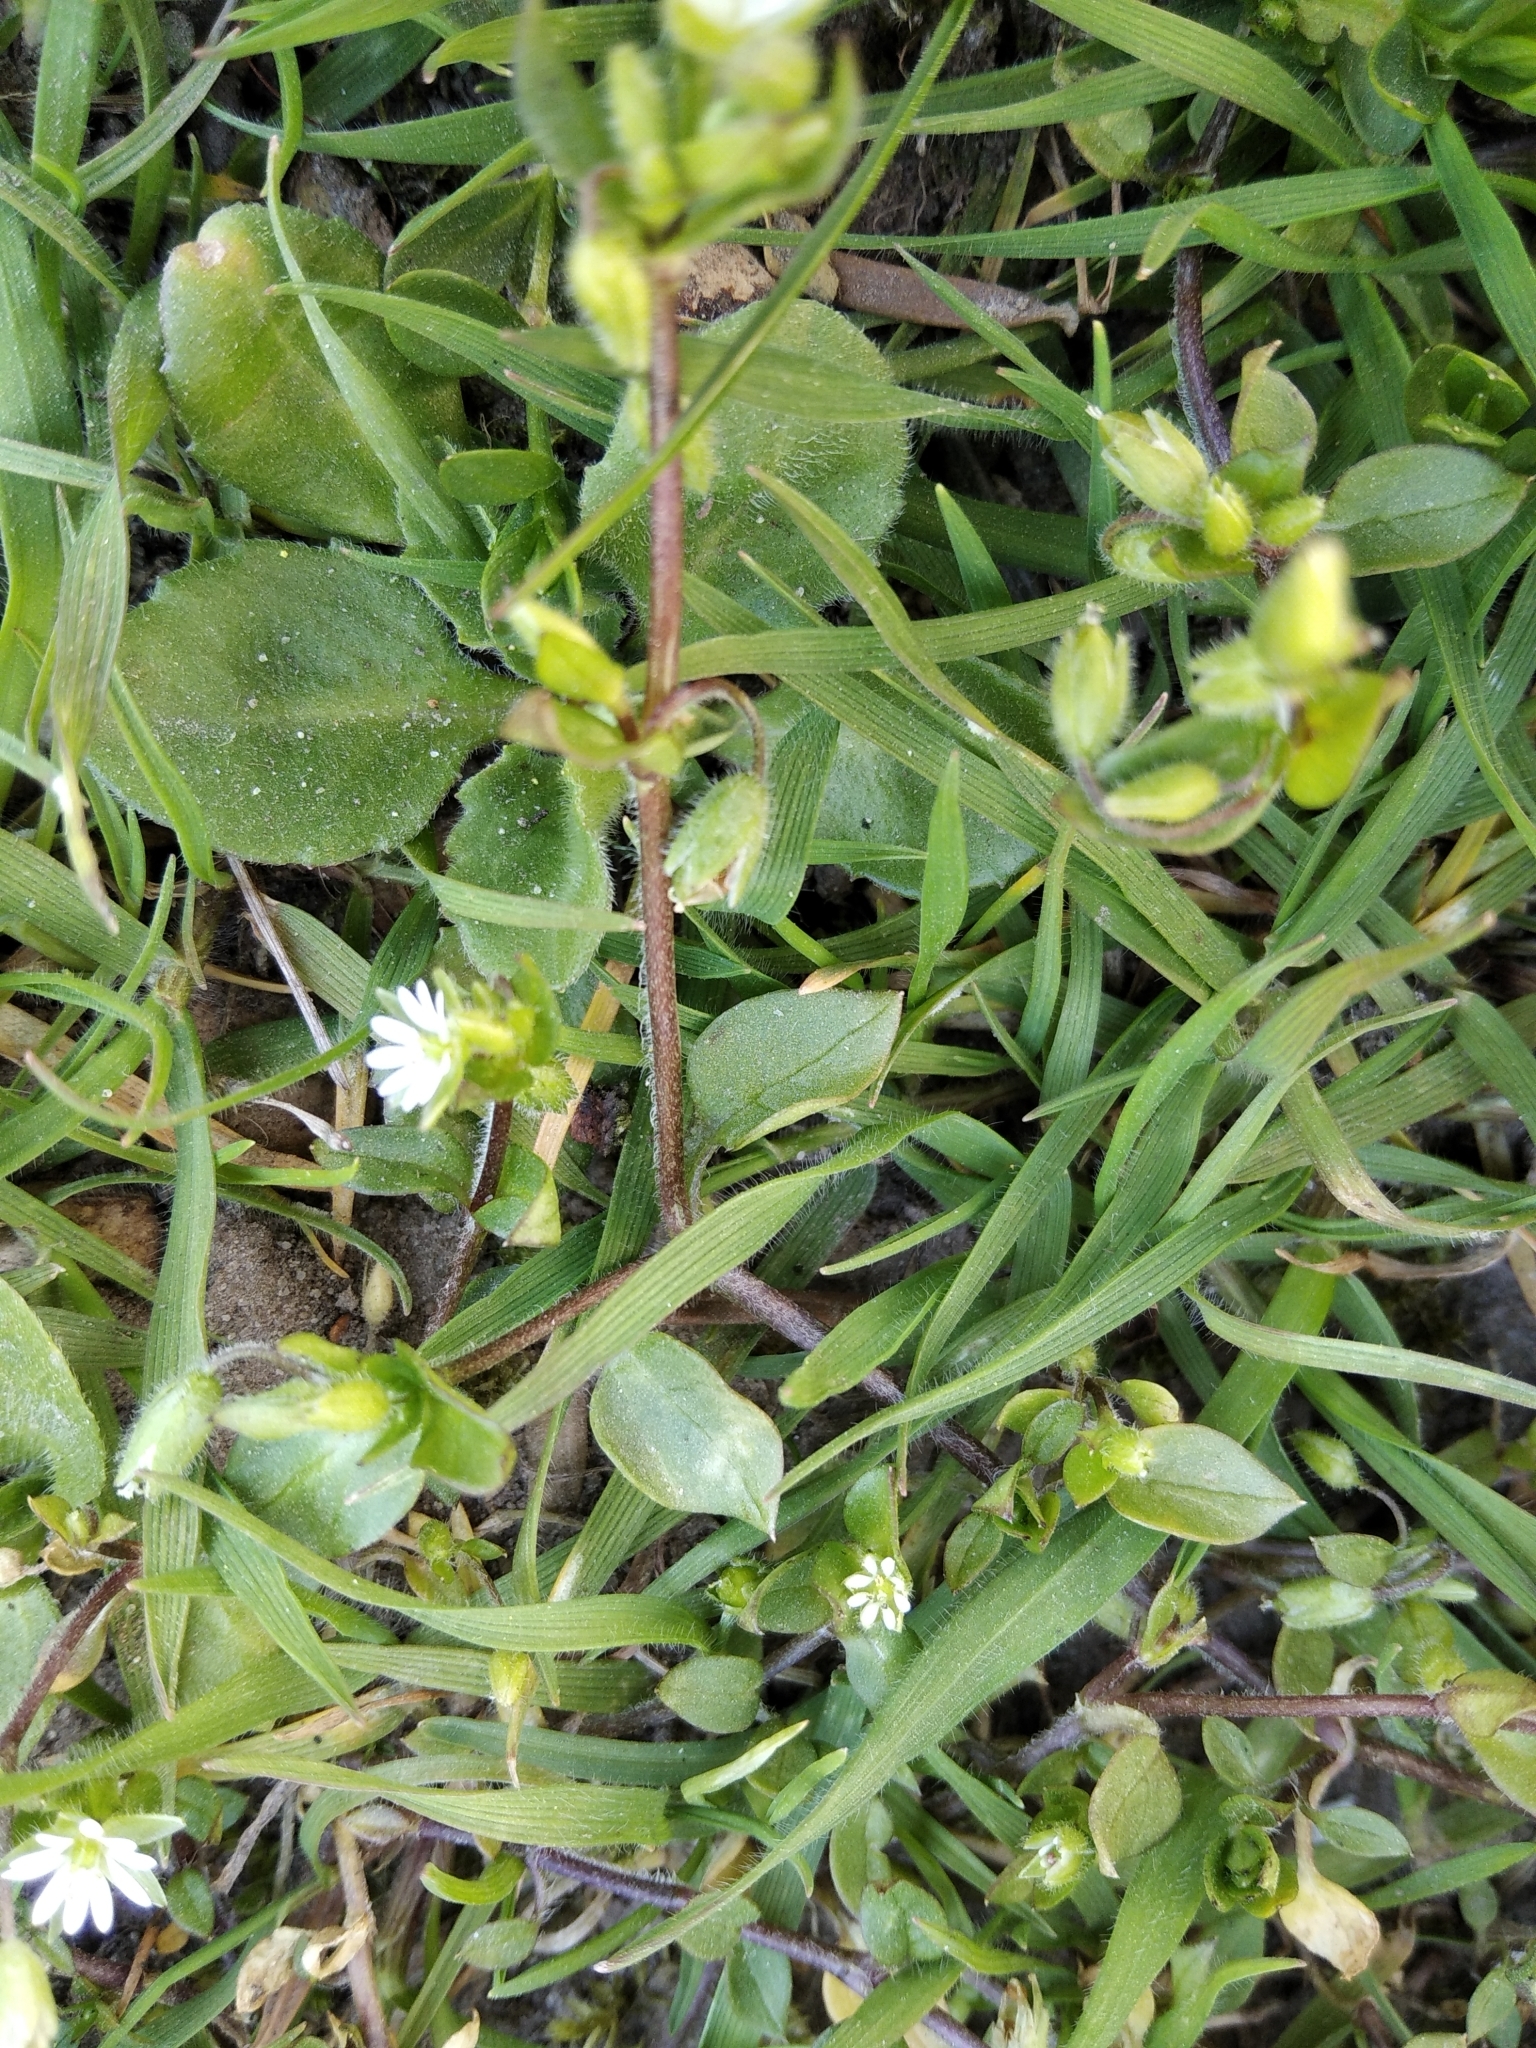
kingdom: Plantae
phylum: Tracheophyta
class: Magnoliopsida
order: Caryophyllales
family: Caryophyllaceae
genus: Stellaria
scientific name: Stellaria media
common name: Common chickweed
